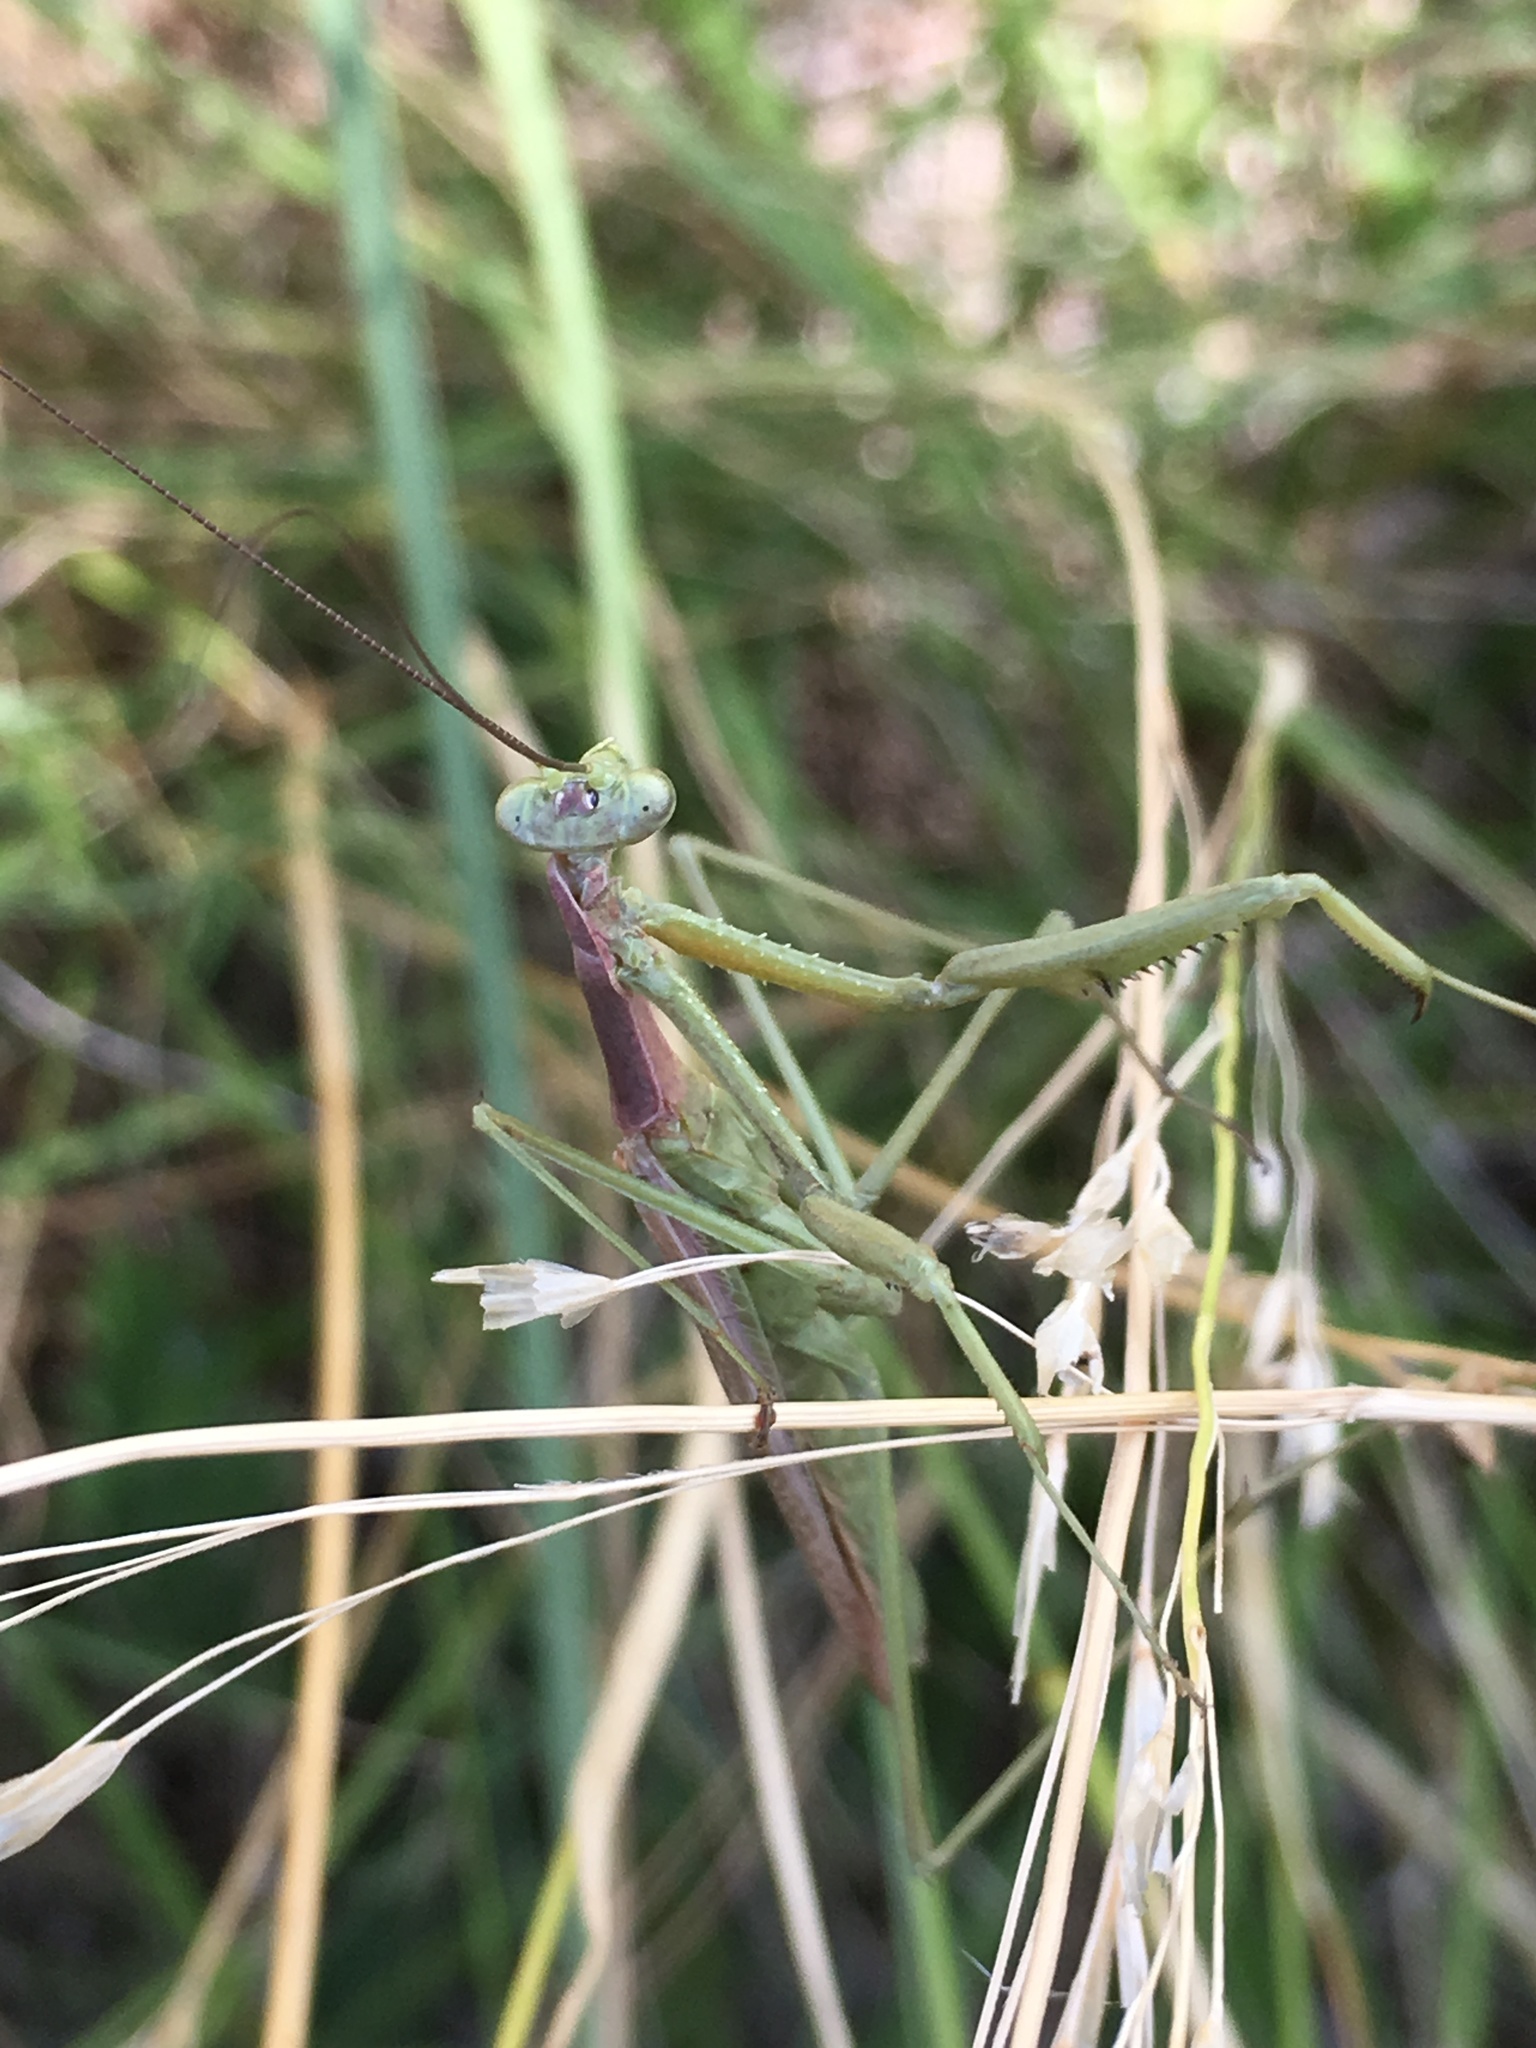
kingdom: Animalia
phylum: Arthropoda
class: Insecta
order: Mantodea
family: Coptopterygidae
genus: Coptopteryx
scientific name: Coptopteryx gayi
